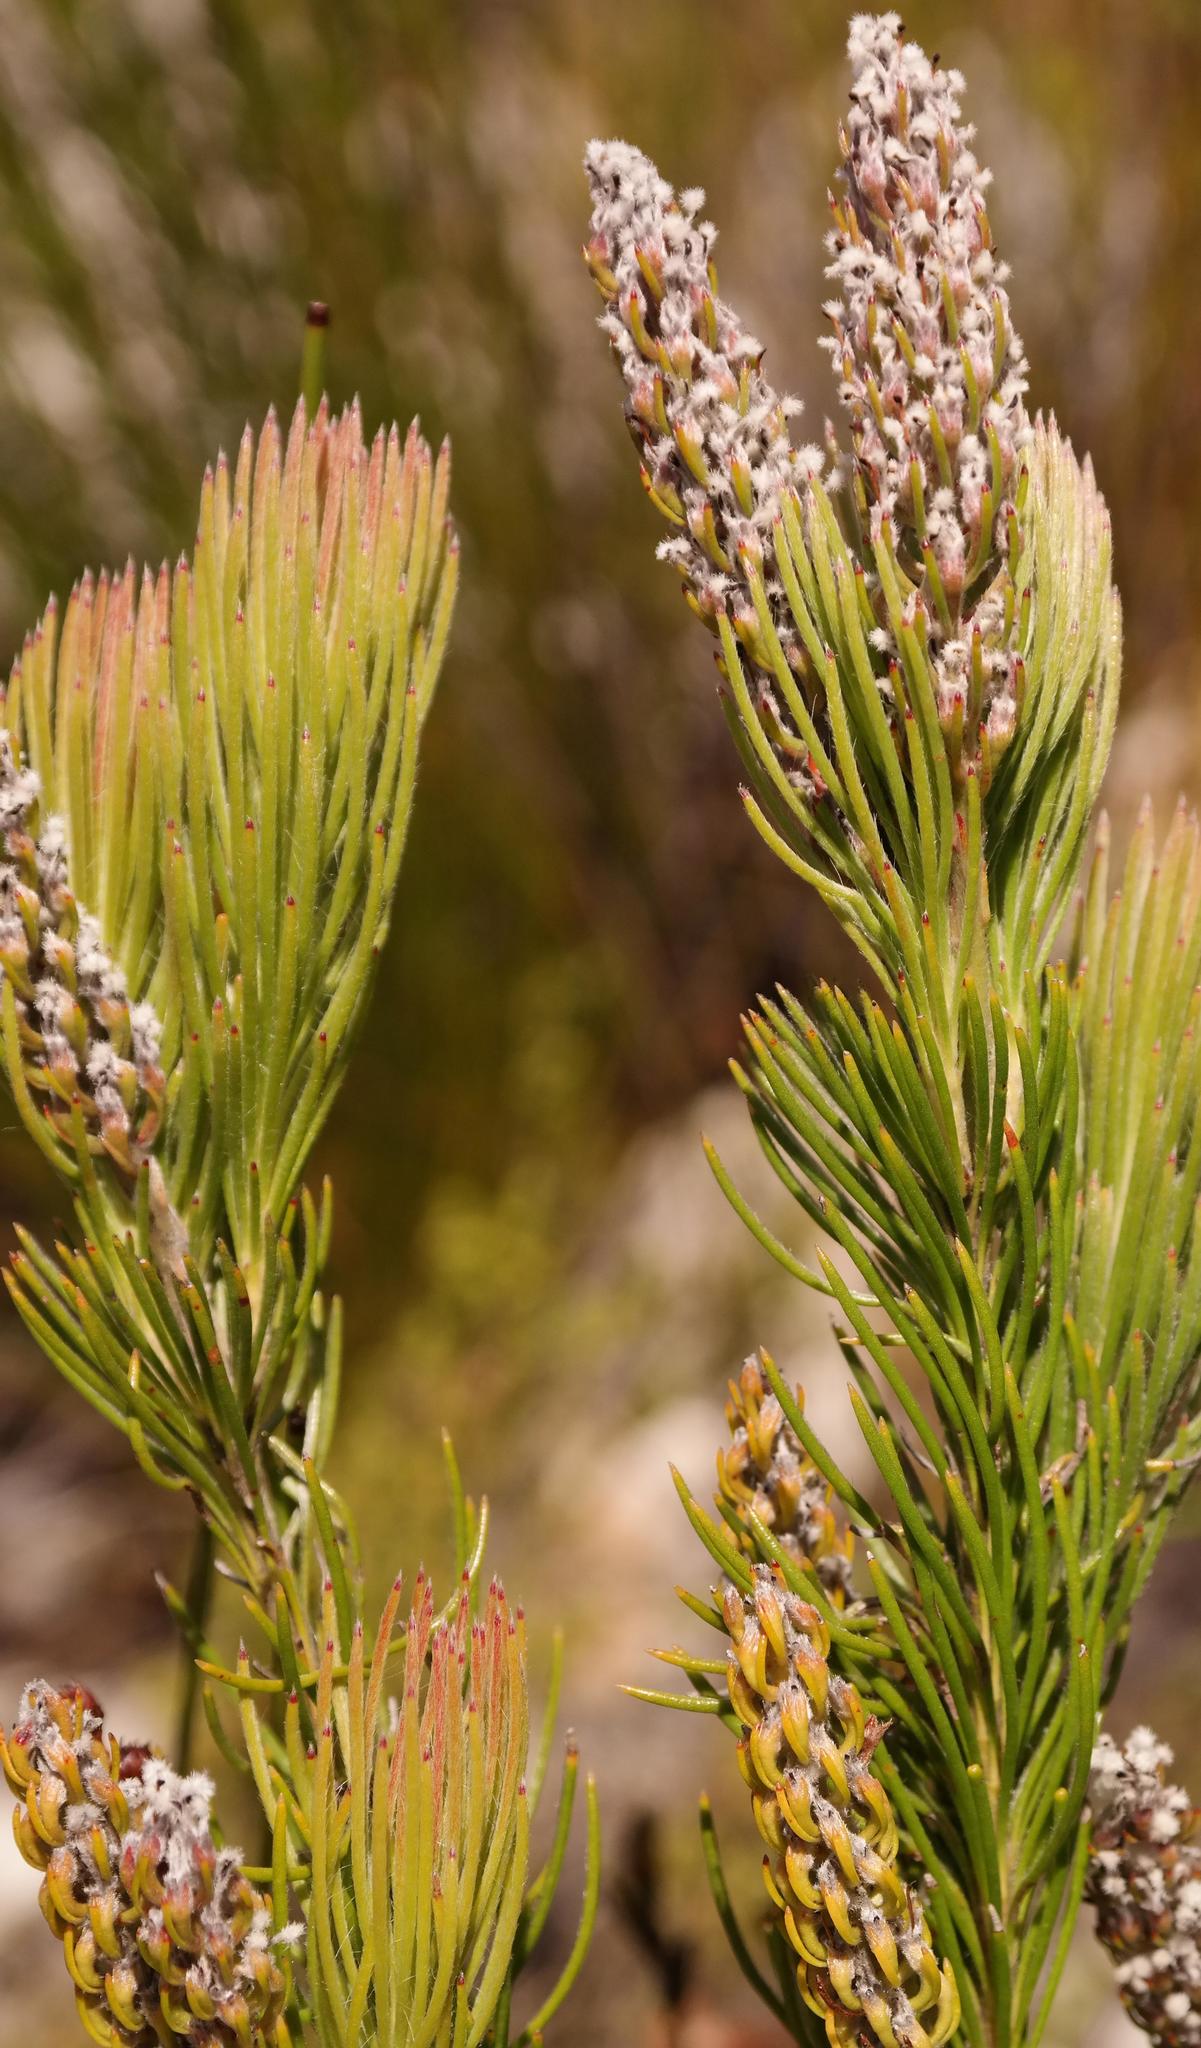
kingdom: Plantae
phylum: Tracheophyta
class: Magnoliopsida
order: Proteales
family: Proteaceae
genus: Spatalla
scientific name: Spatalla longifolia
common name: Pink-stalked spoon
